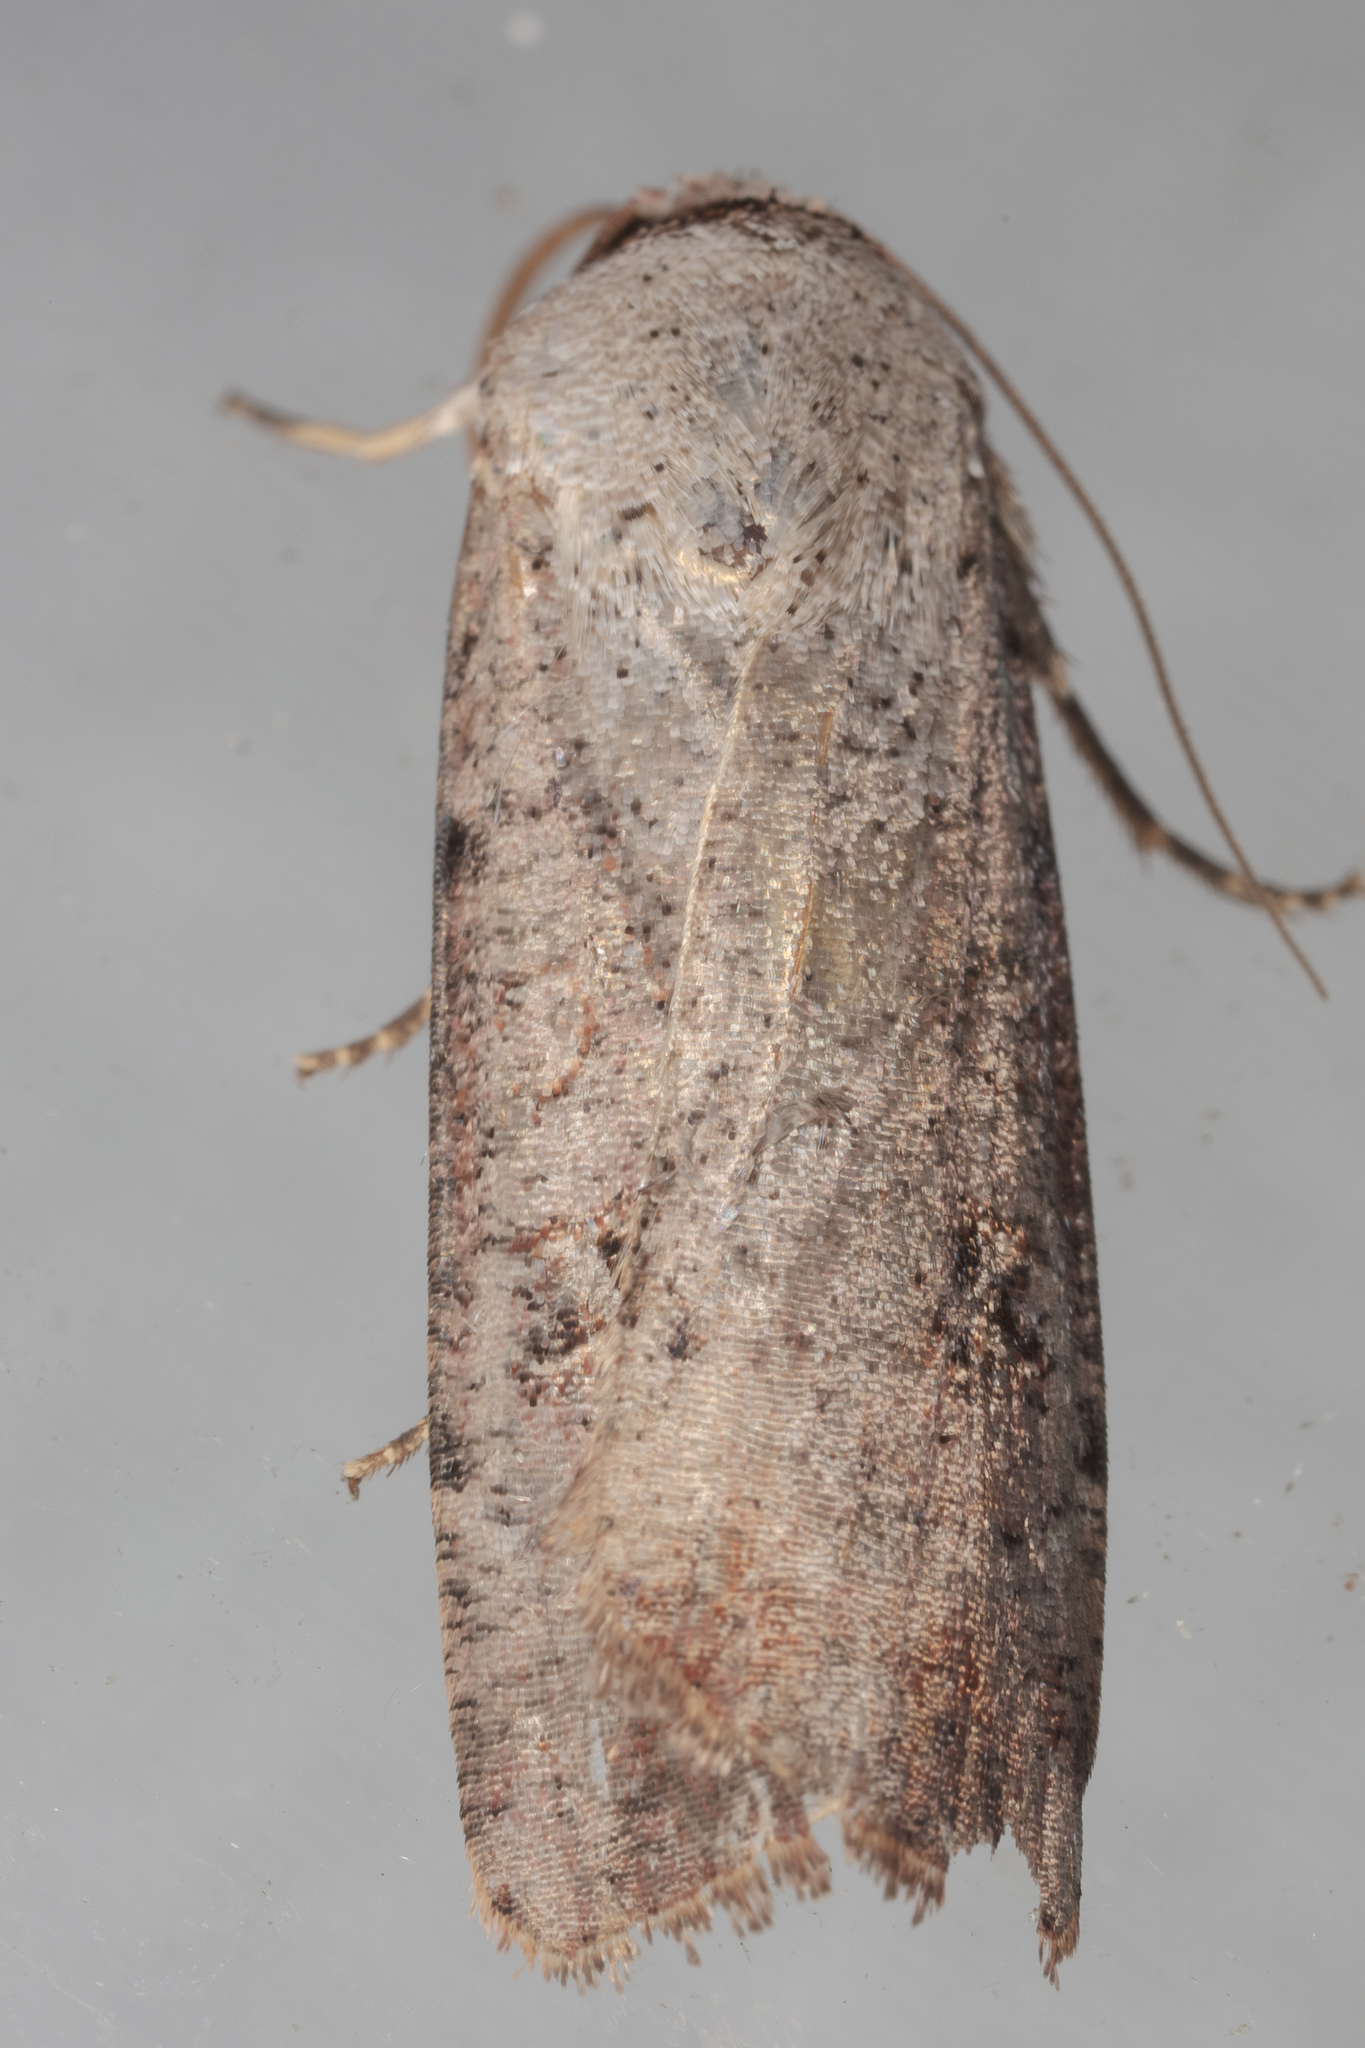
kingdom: Animalia
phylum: Arthropoda
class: Insecta
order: Lepidoptera
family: Noctuidae
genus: Anicla
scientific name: Anicla infecta
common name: Green cutworm
